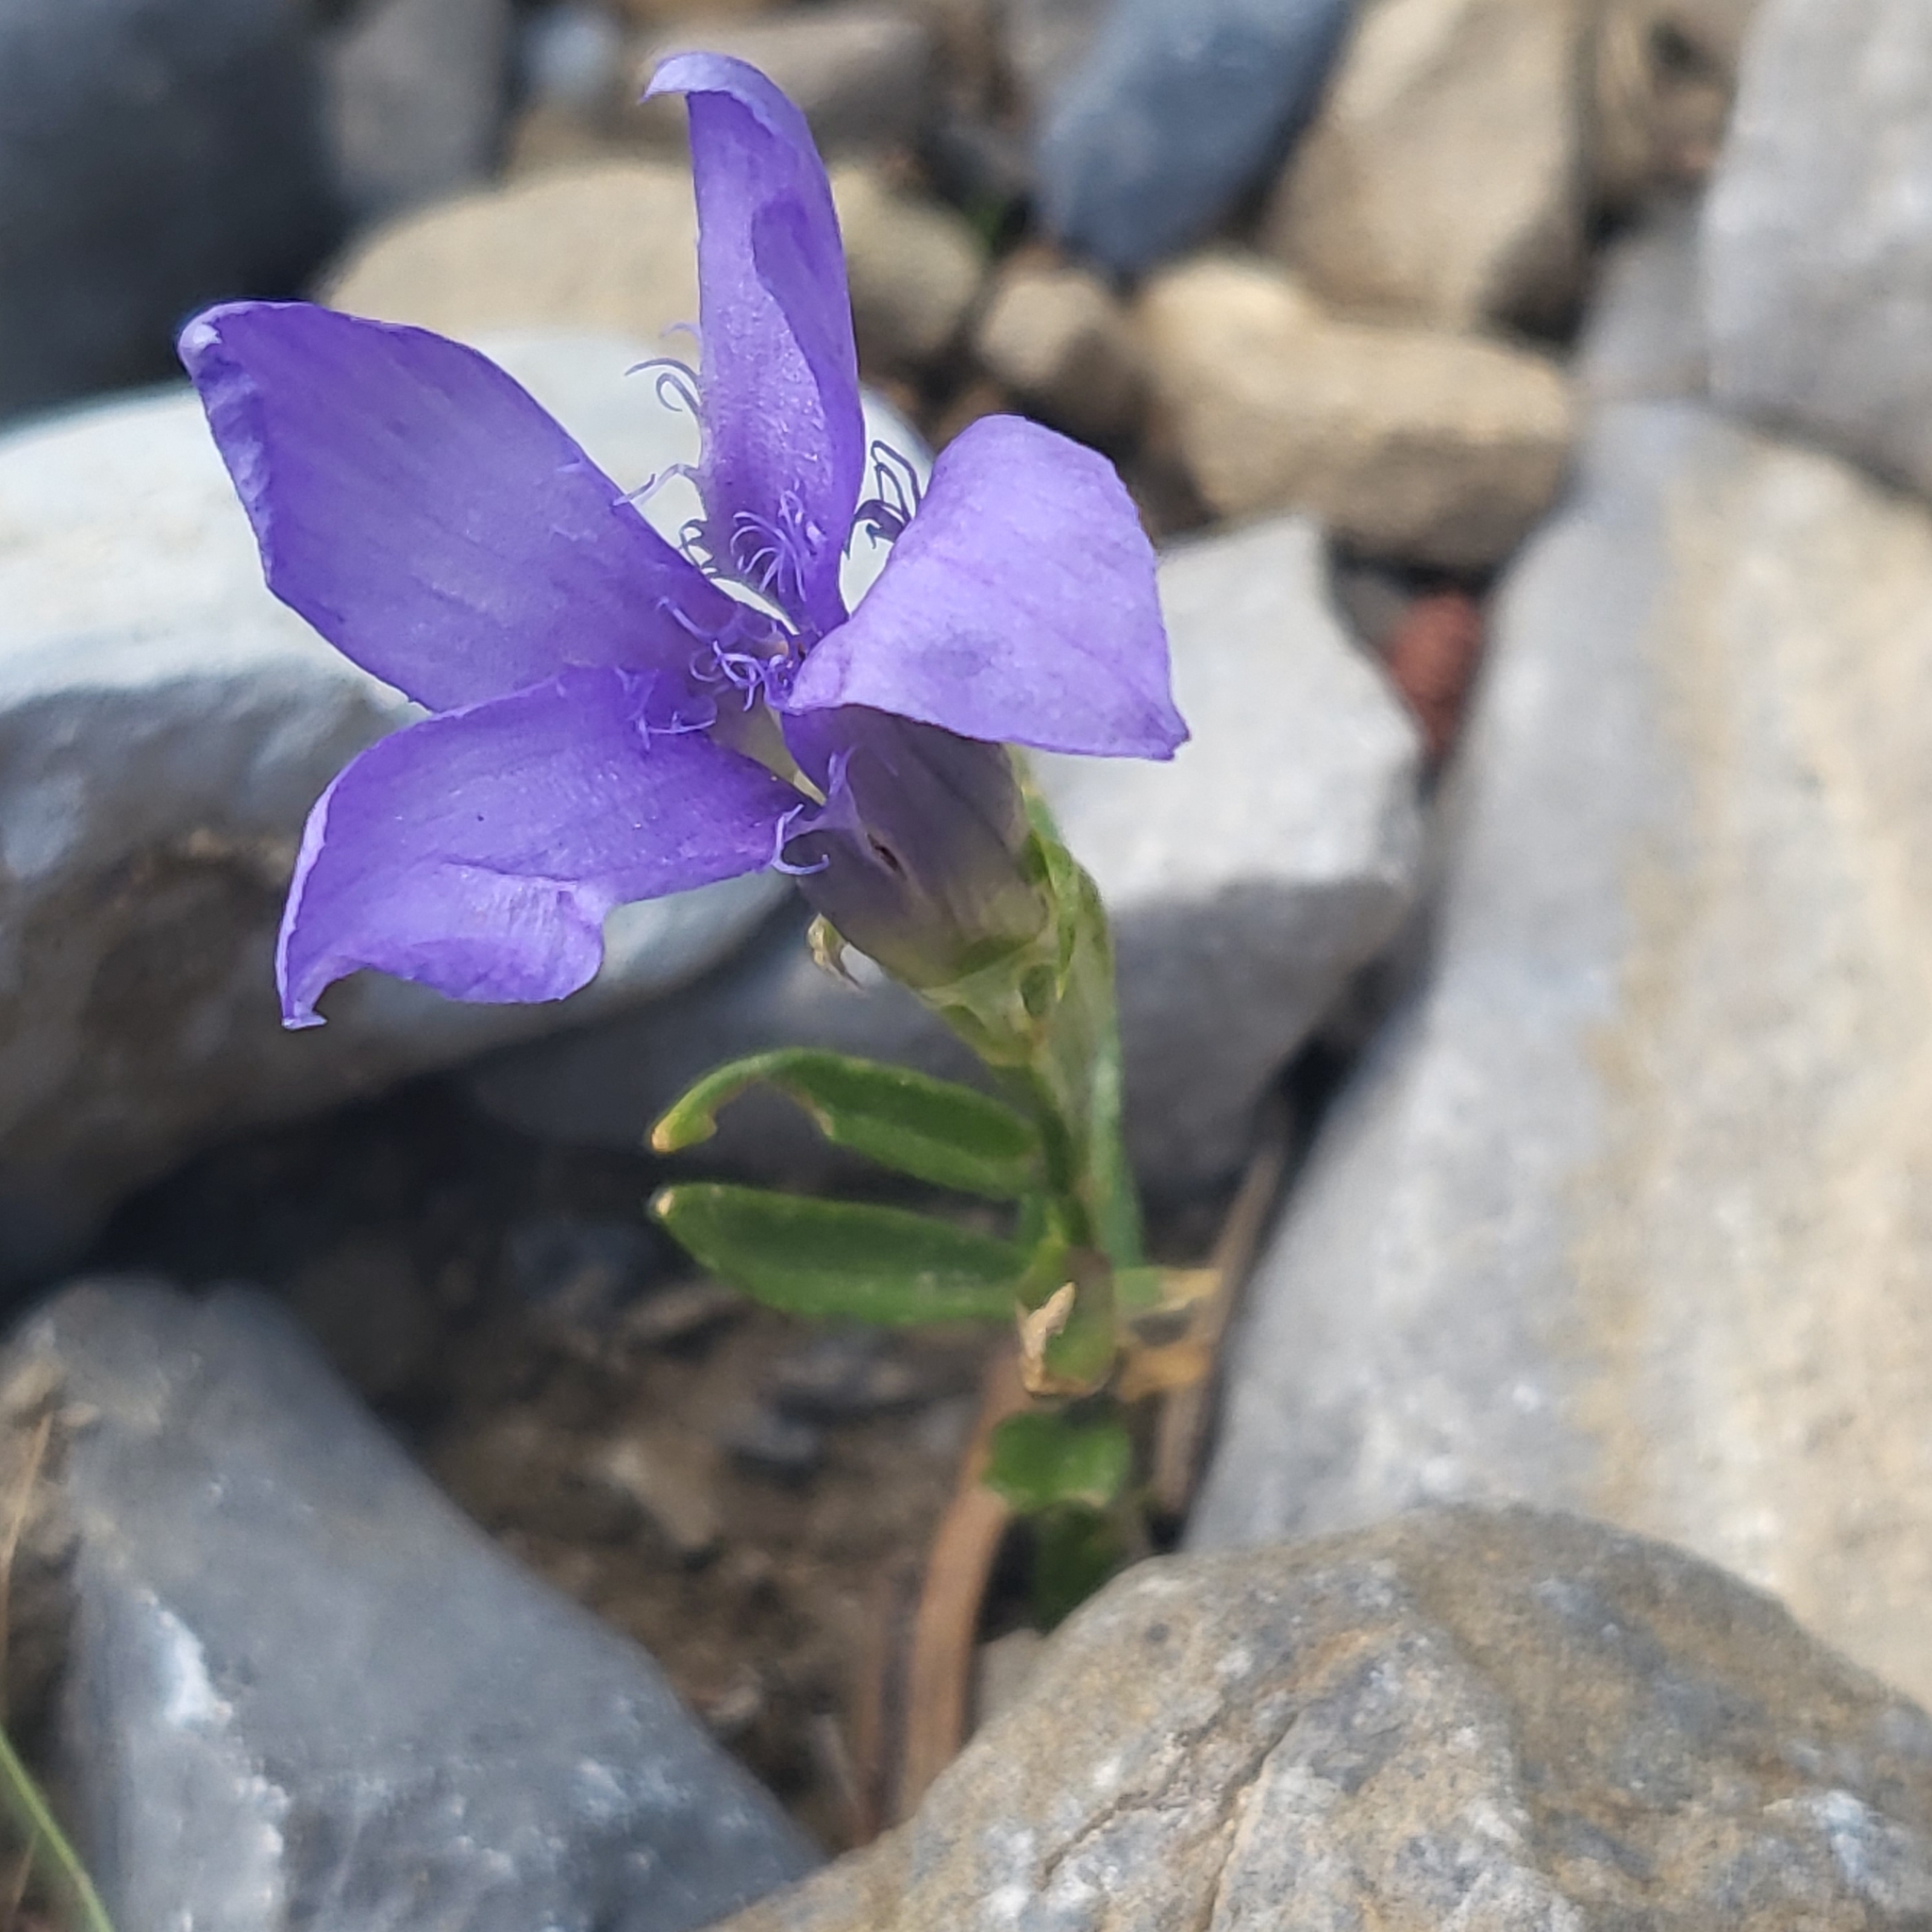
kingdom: Plantae
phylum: Tracheophyta
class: Magnoliopsida
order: Gentianales
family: Gentianaceae
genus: Gentianopsis
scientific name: Gentianopsis ciliata
